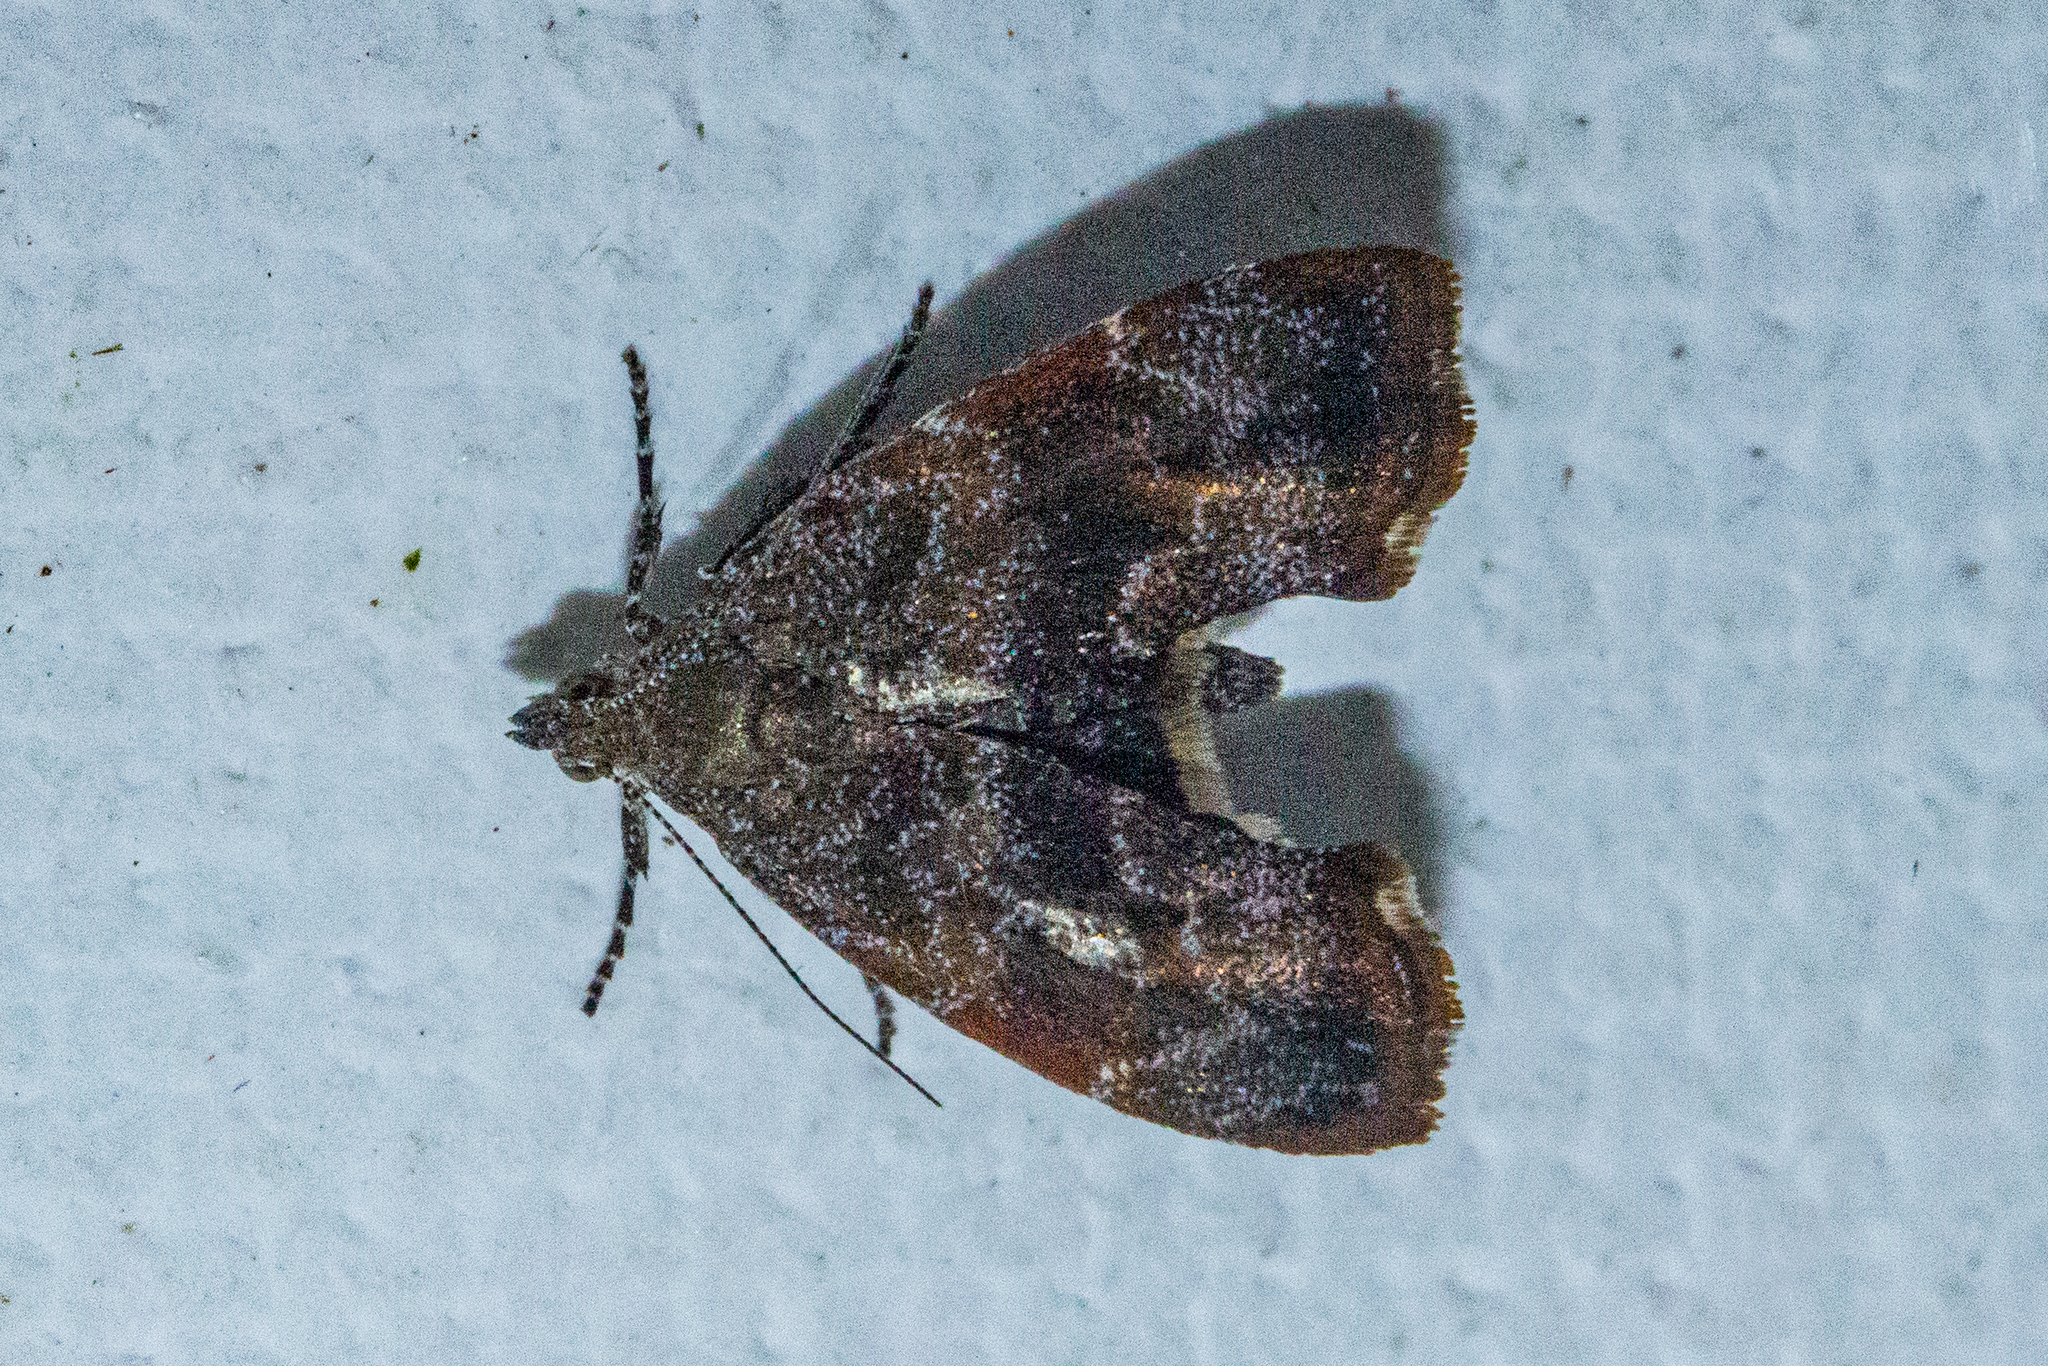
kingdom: Animalia
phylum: Arthropoda
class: Insecta
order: Lepidoptera
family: Choreutidae
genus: Asterivora
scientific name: Asterivora combinatana
